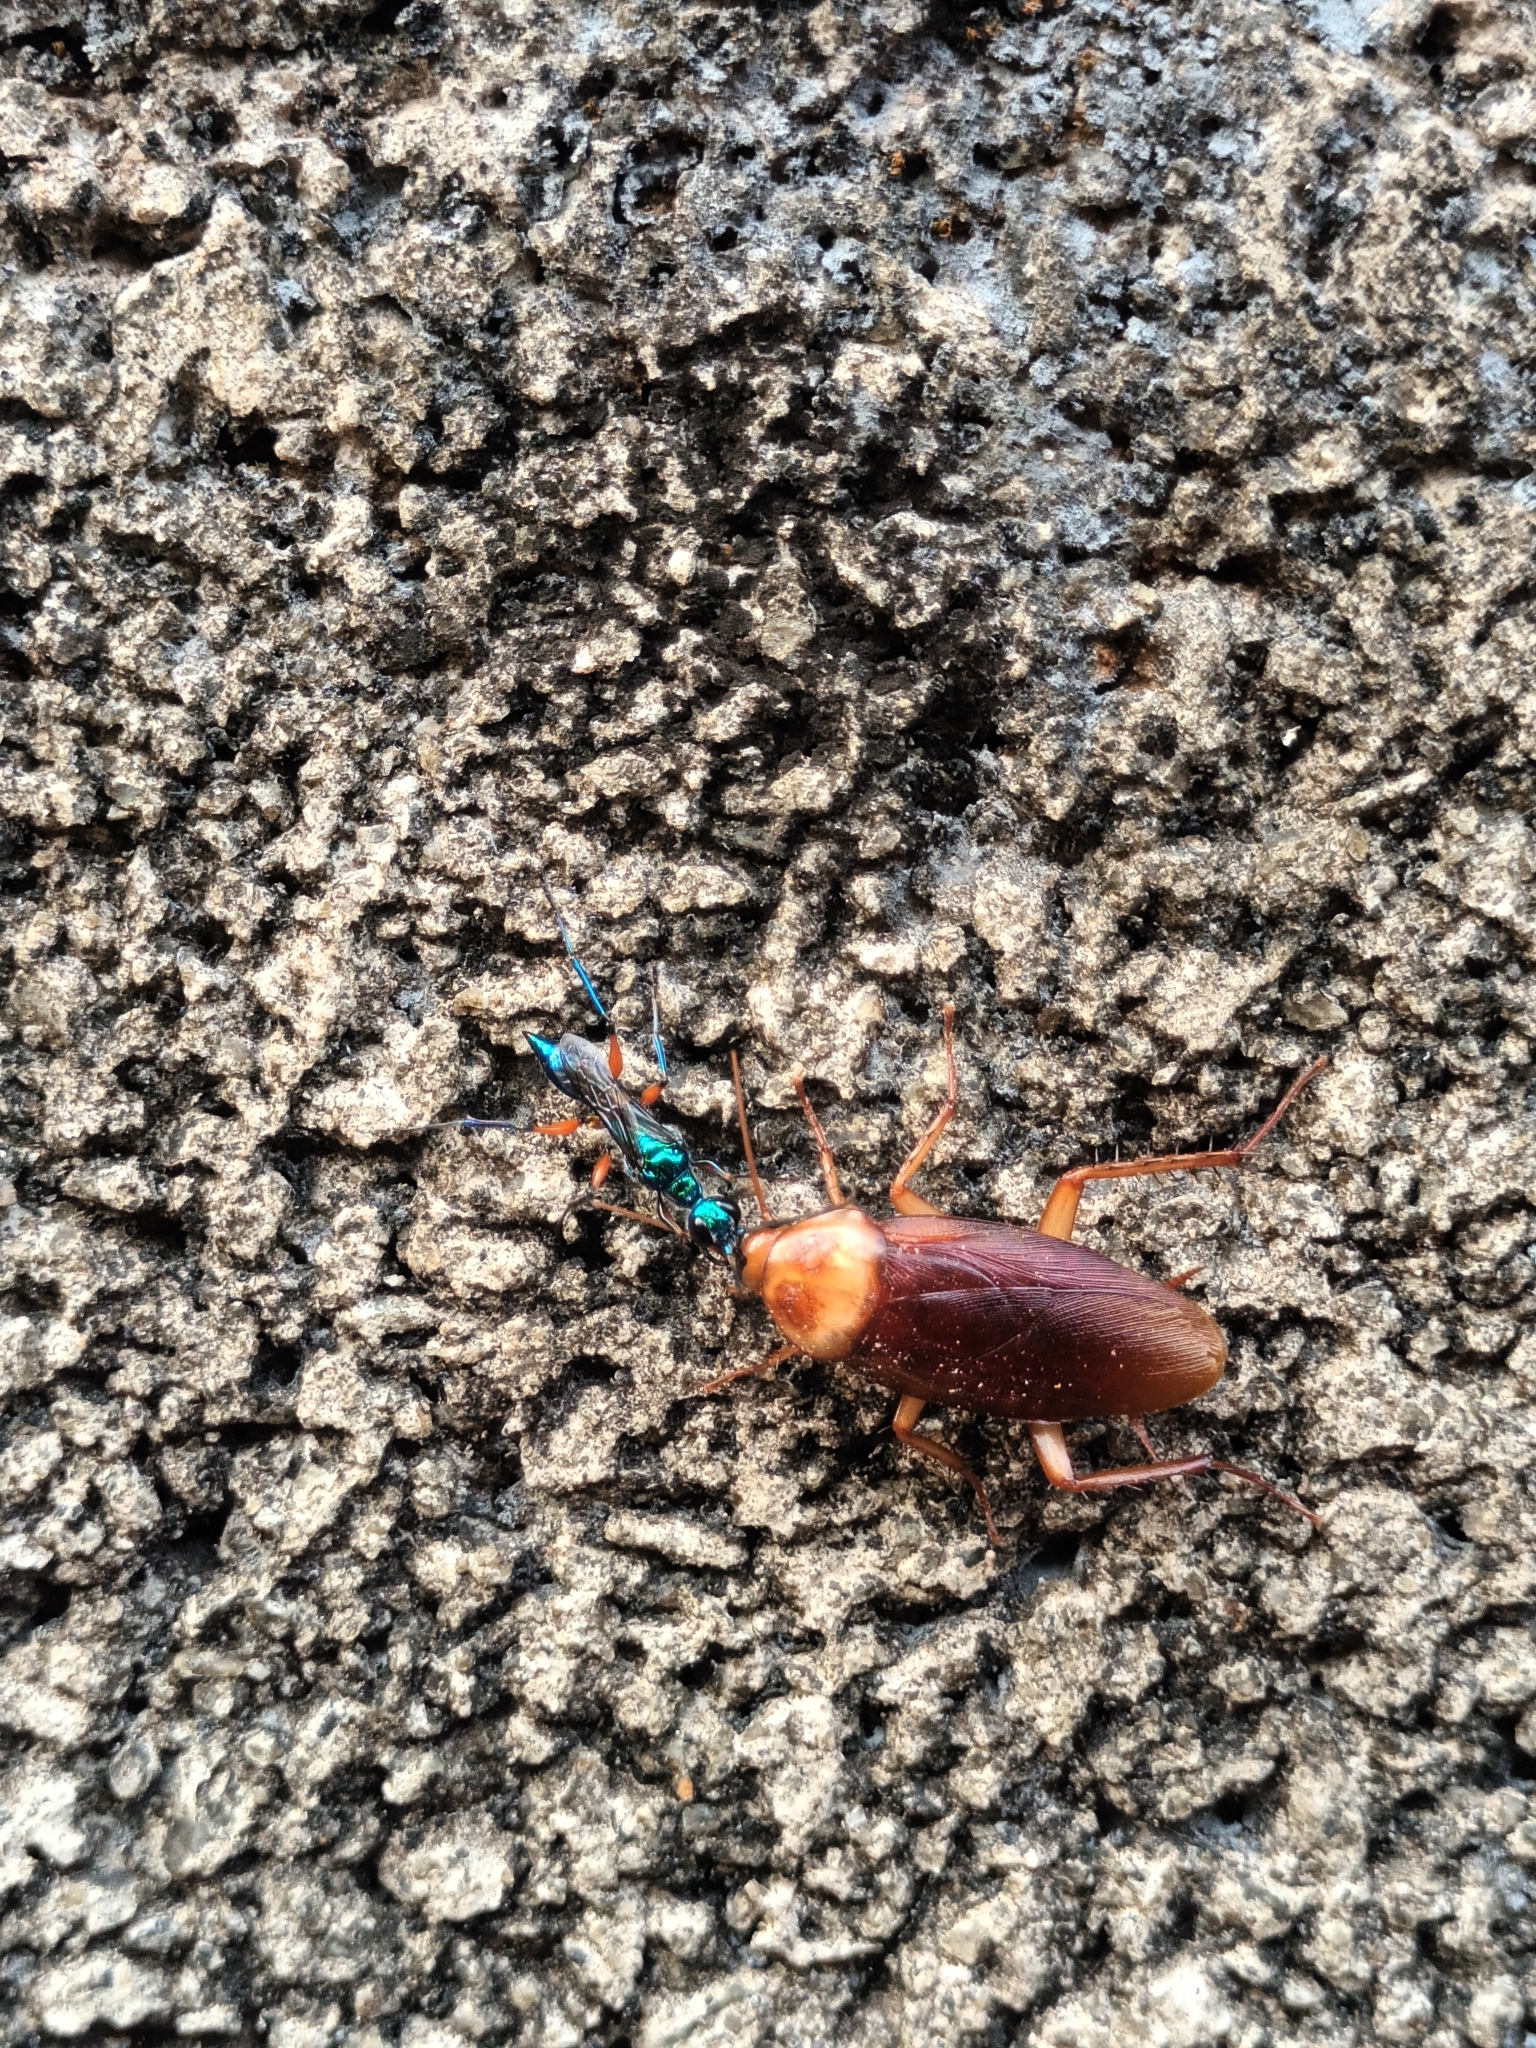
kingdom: Animalia
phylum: Arthropoda
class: Insecta
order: Hymenoptera
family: Ampulicidae
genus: Ampulex
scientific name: Ampulex compressa
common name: Emerald cockroach wasp
